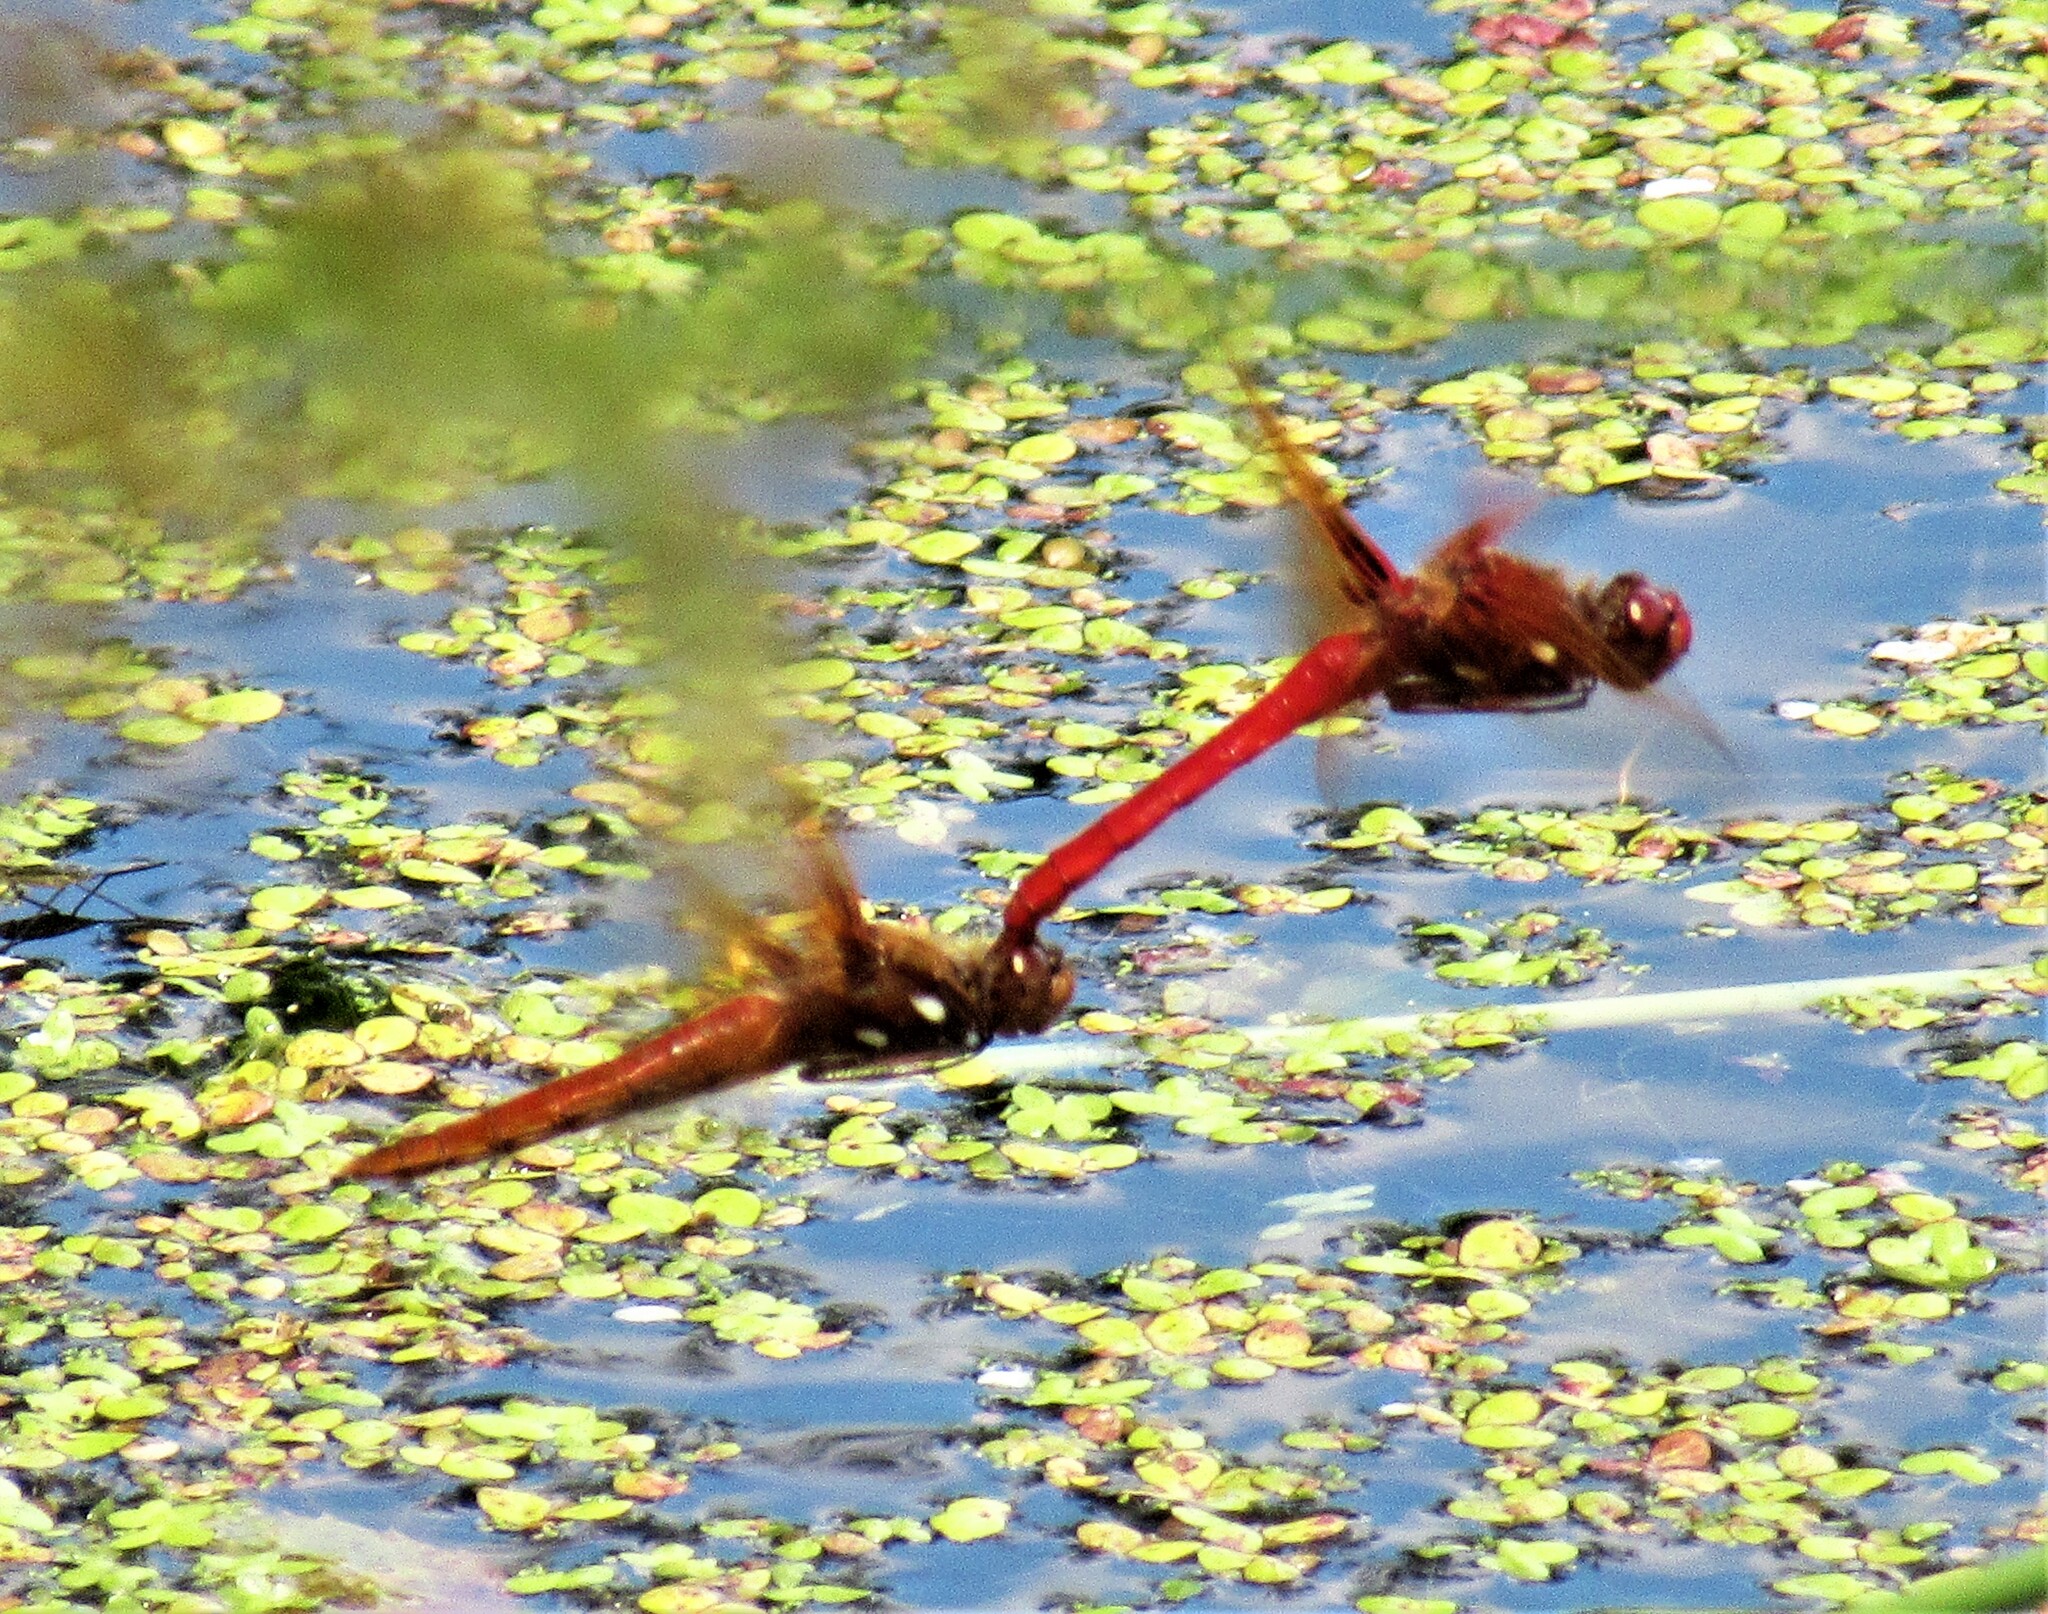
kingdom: Animalia
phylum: Arthropoda
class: Insecta
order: Odonata
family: Libellulidae
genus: Sympetrum
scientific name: Sympetrum illotum
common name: Cardinal meadowhawk
